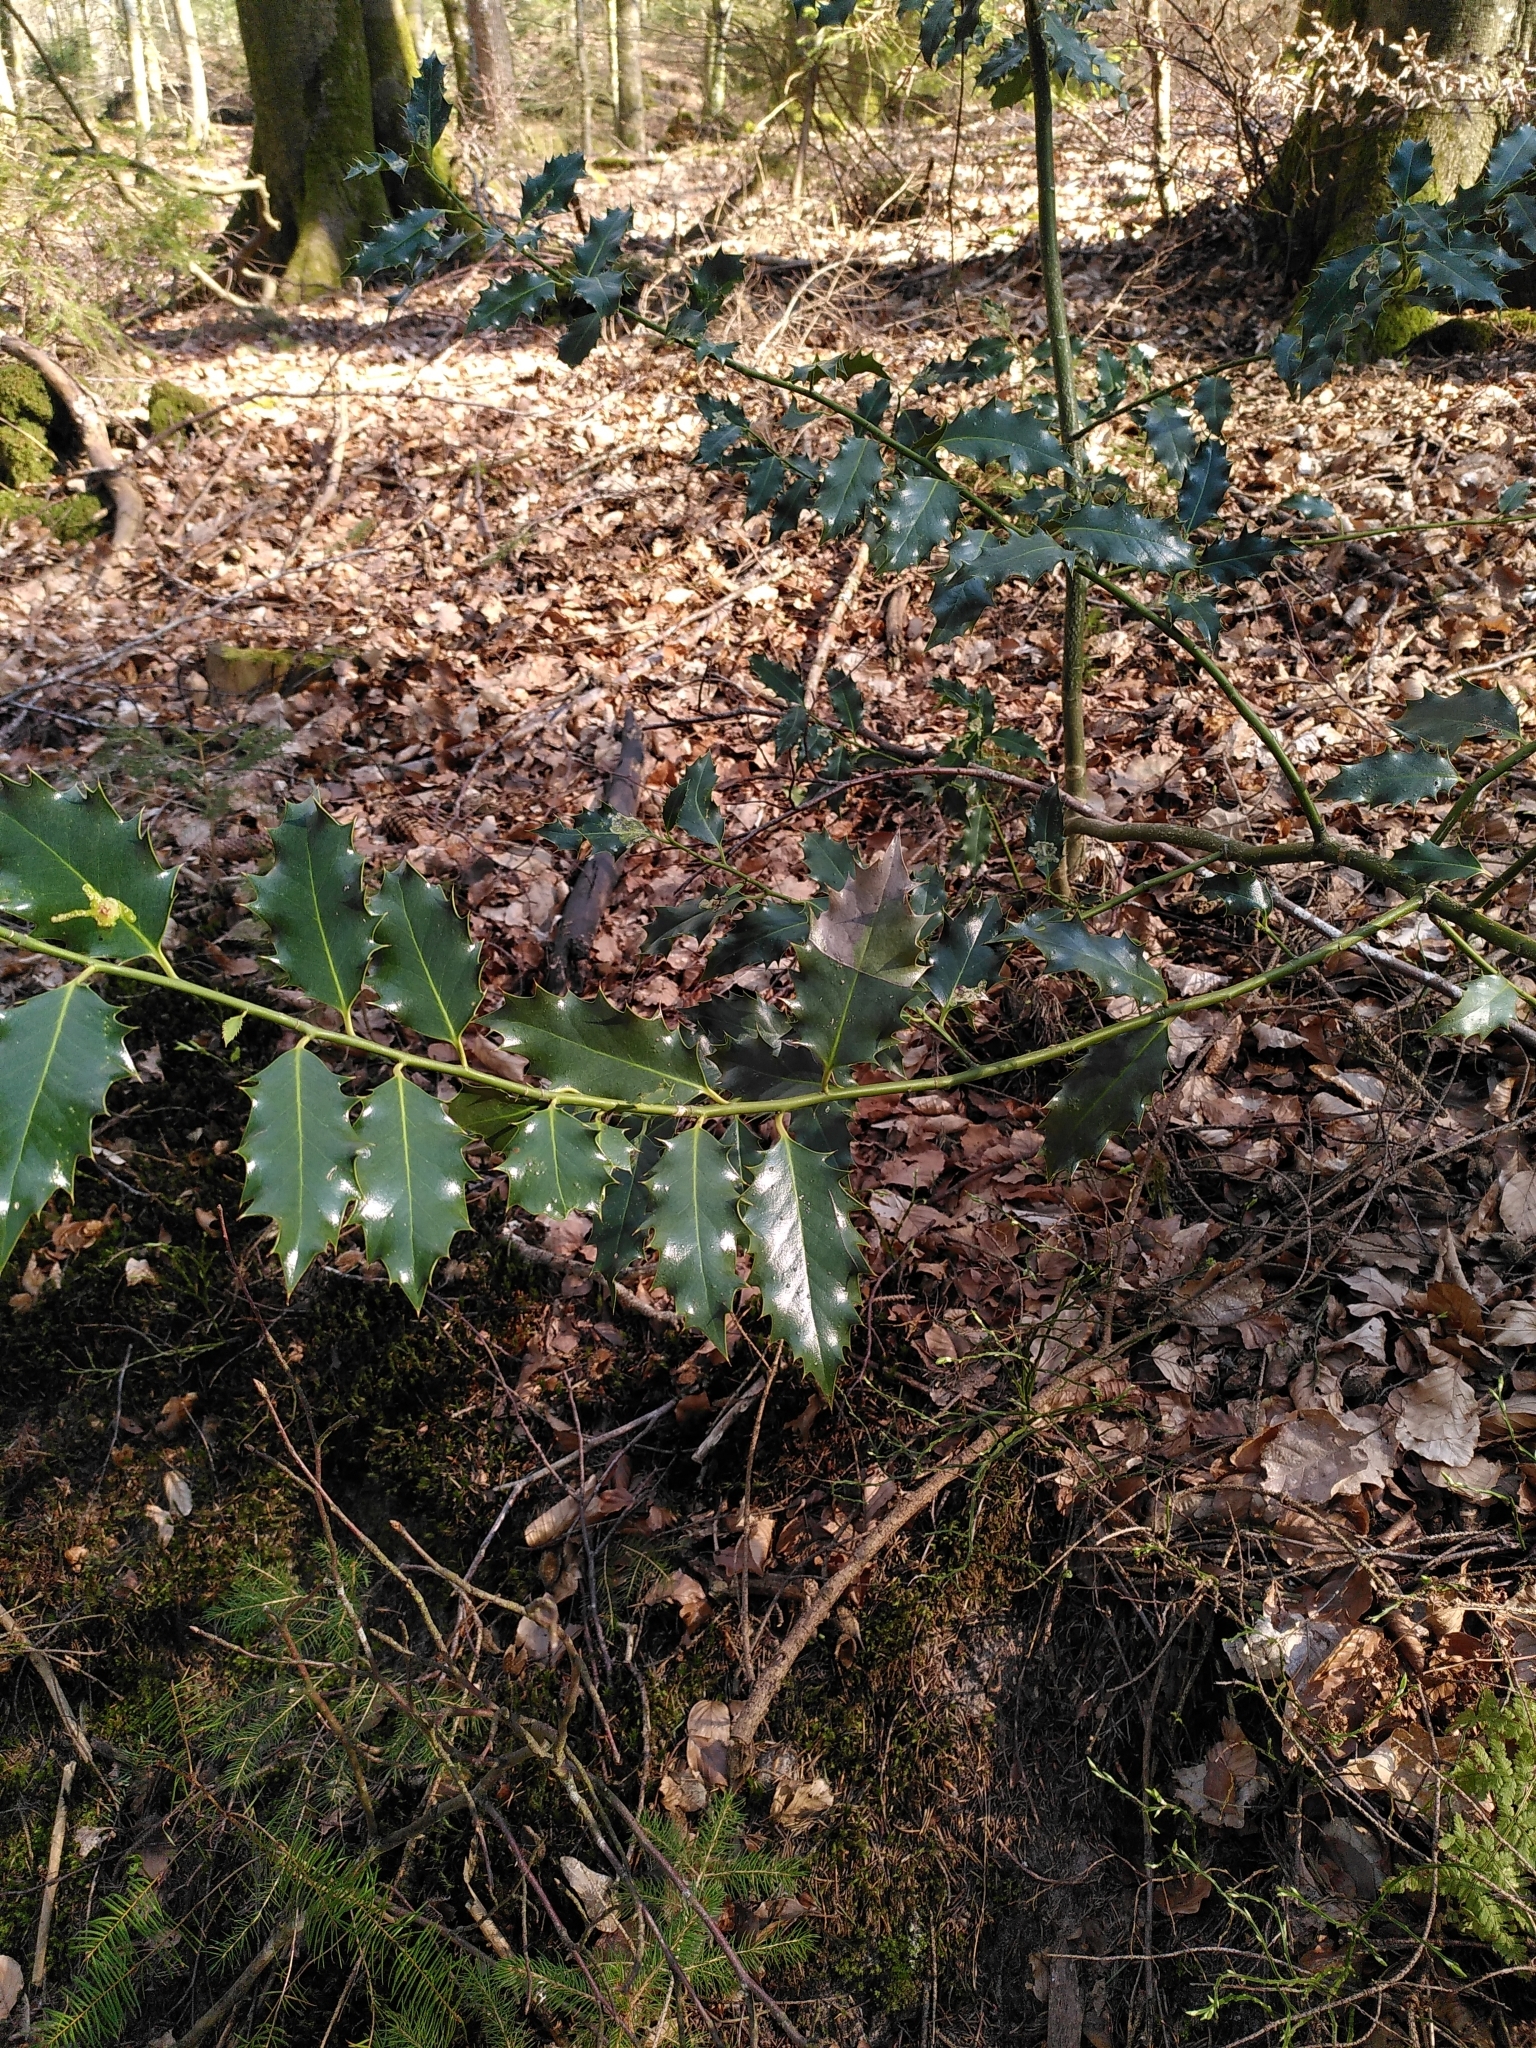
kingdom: Plantae
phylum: Tracheophyta
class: Magnoliopsida
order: Aquifoliales
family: Aquifoliaceae
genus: Ilex
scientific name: Ilex aquifolium
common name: English holly
